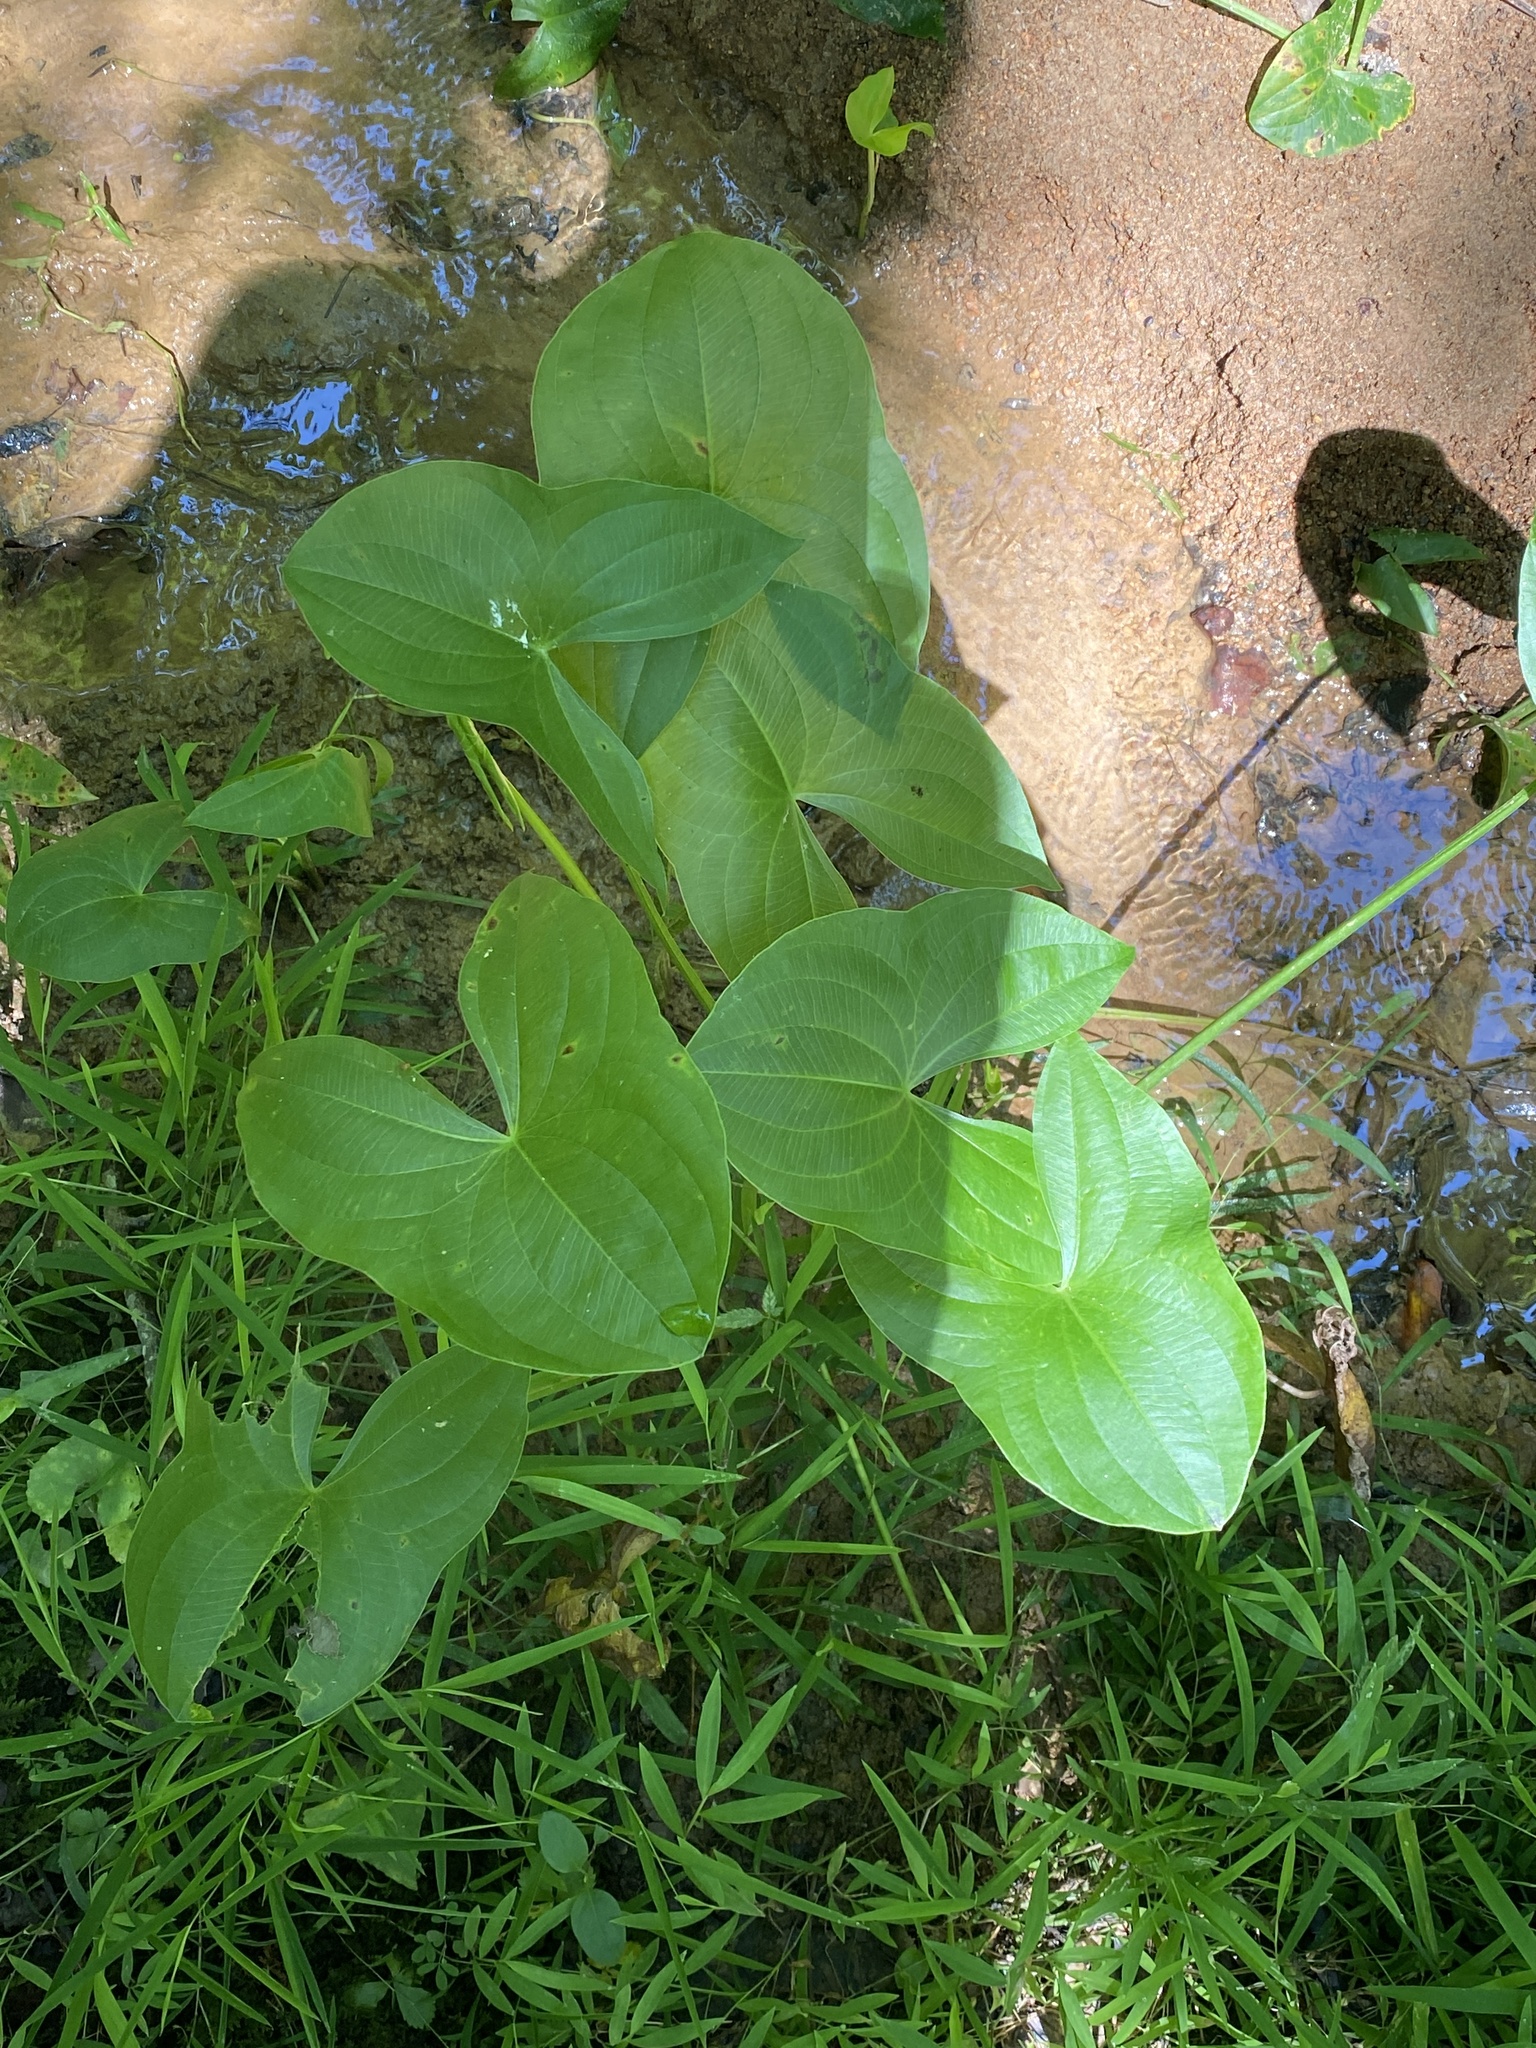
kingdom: Plantae
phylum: Tracheophyta
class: Liliopsida
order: Alismatales
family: Alismataceae
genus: Sagittaria
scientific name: Sagittaria latifolia
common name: Duck-potato
